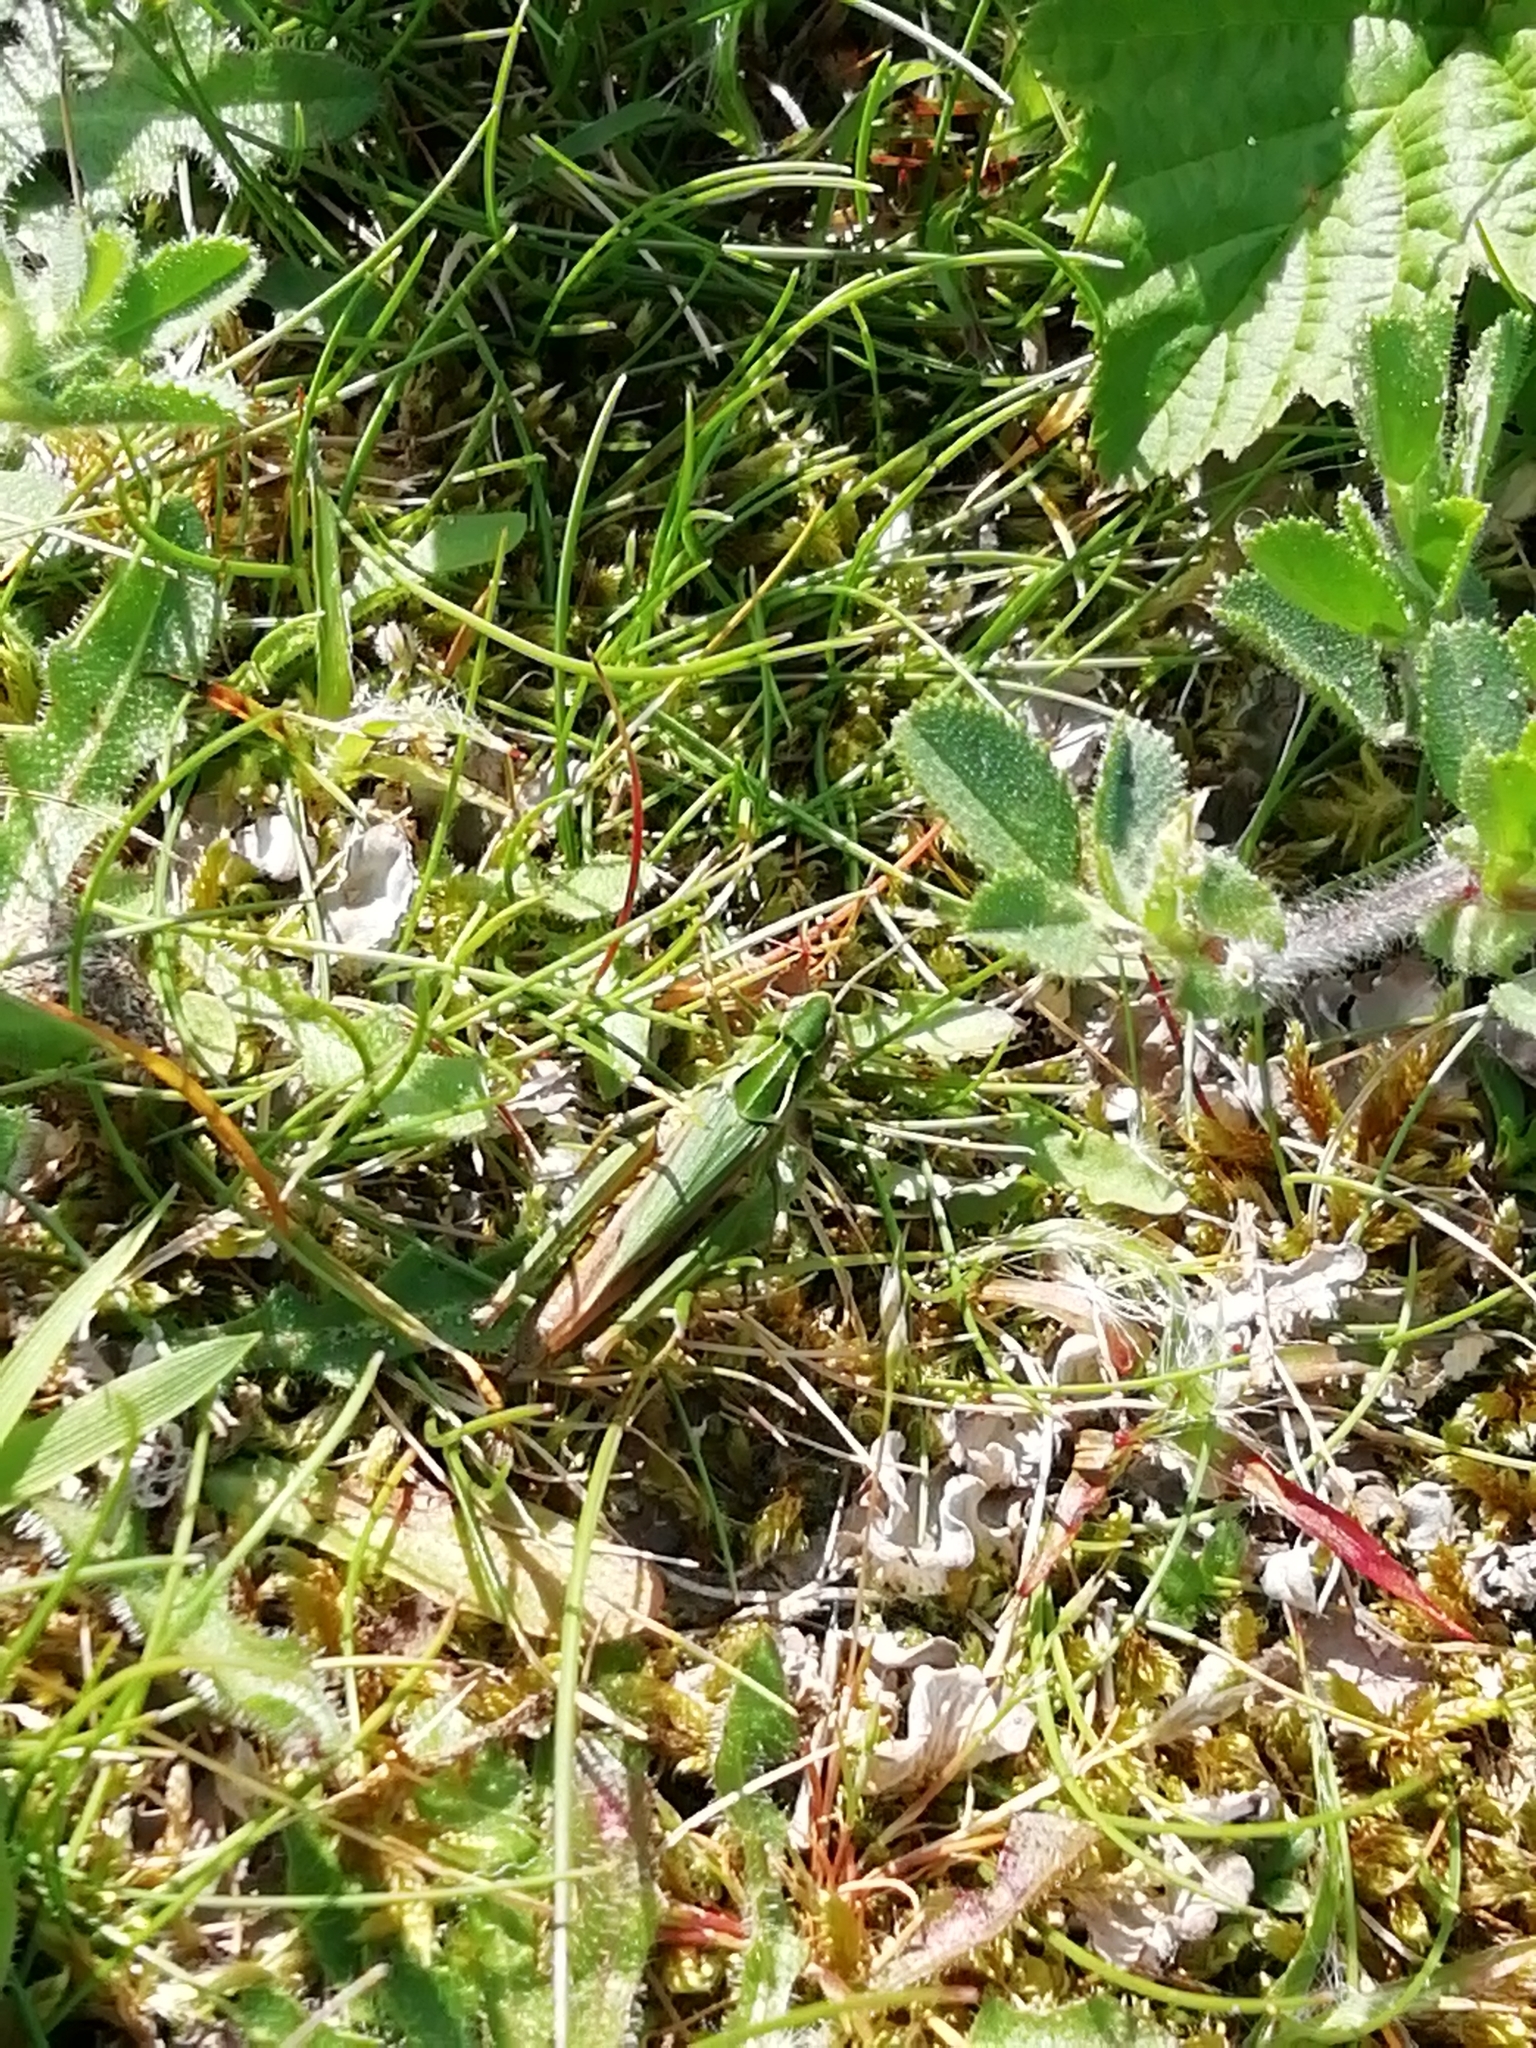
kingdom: Animalia
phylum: Arthropoda
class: Insecta
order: Orthoptera
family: Acrididae
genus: Omocestus
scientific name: Omocestus viridulus
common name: Common green grasshopper
